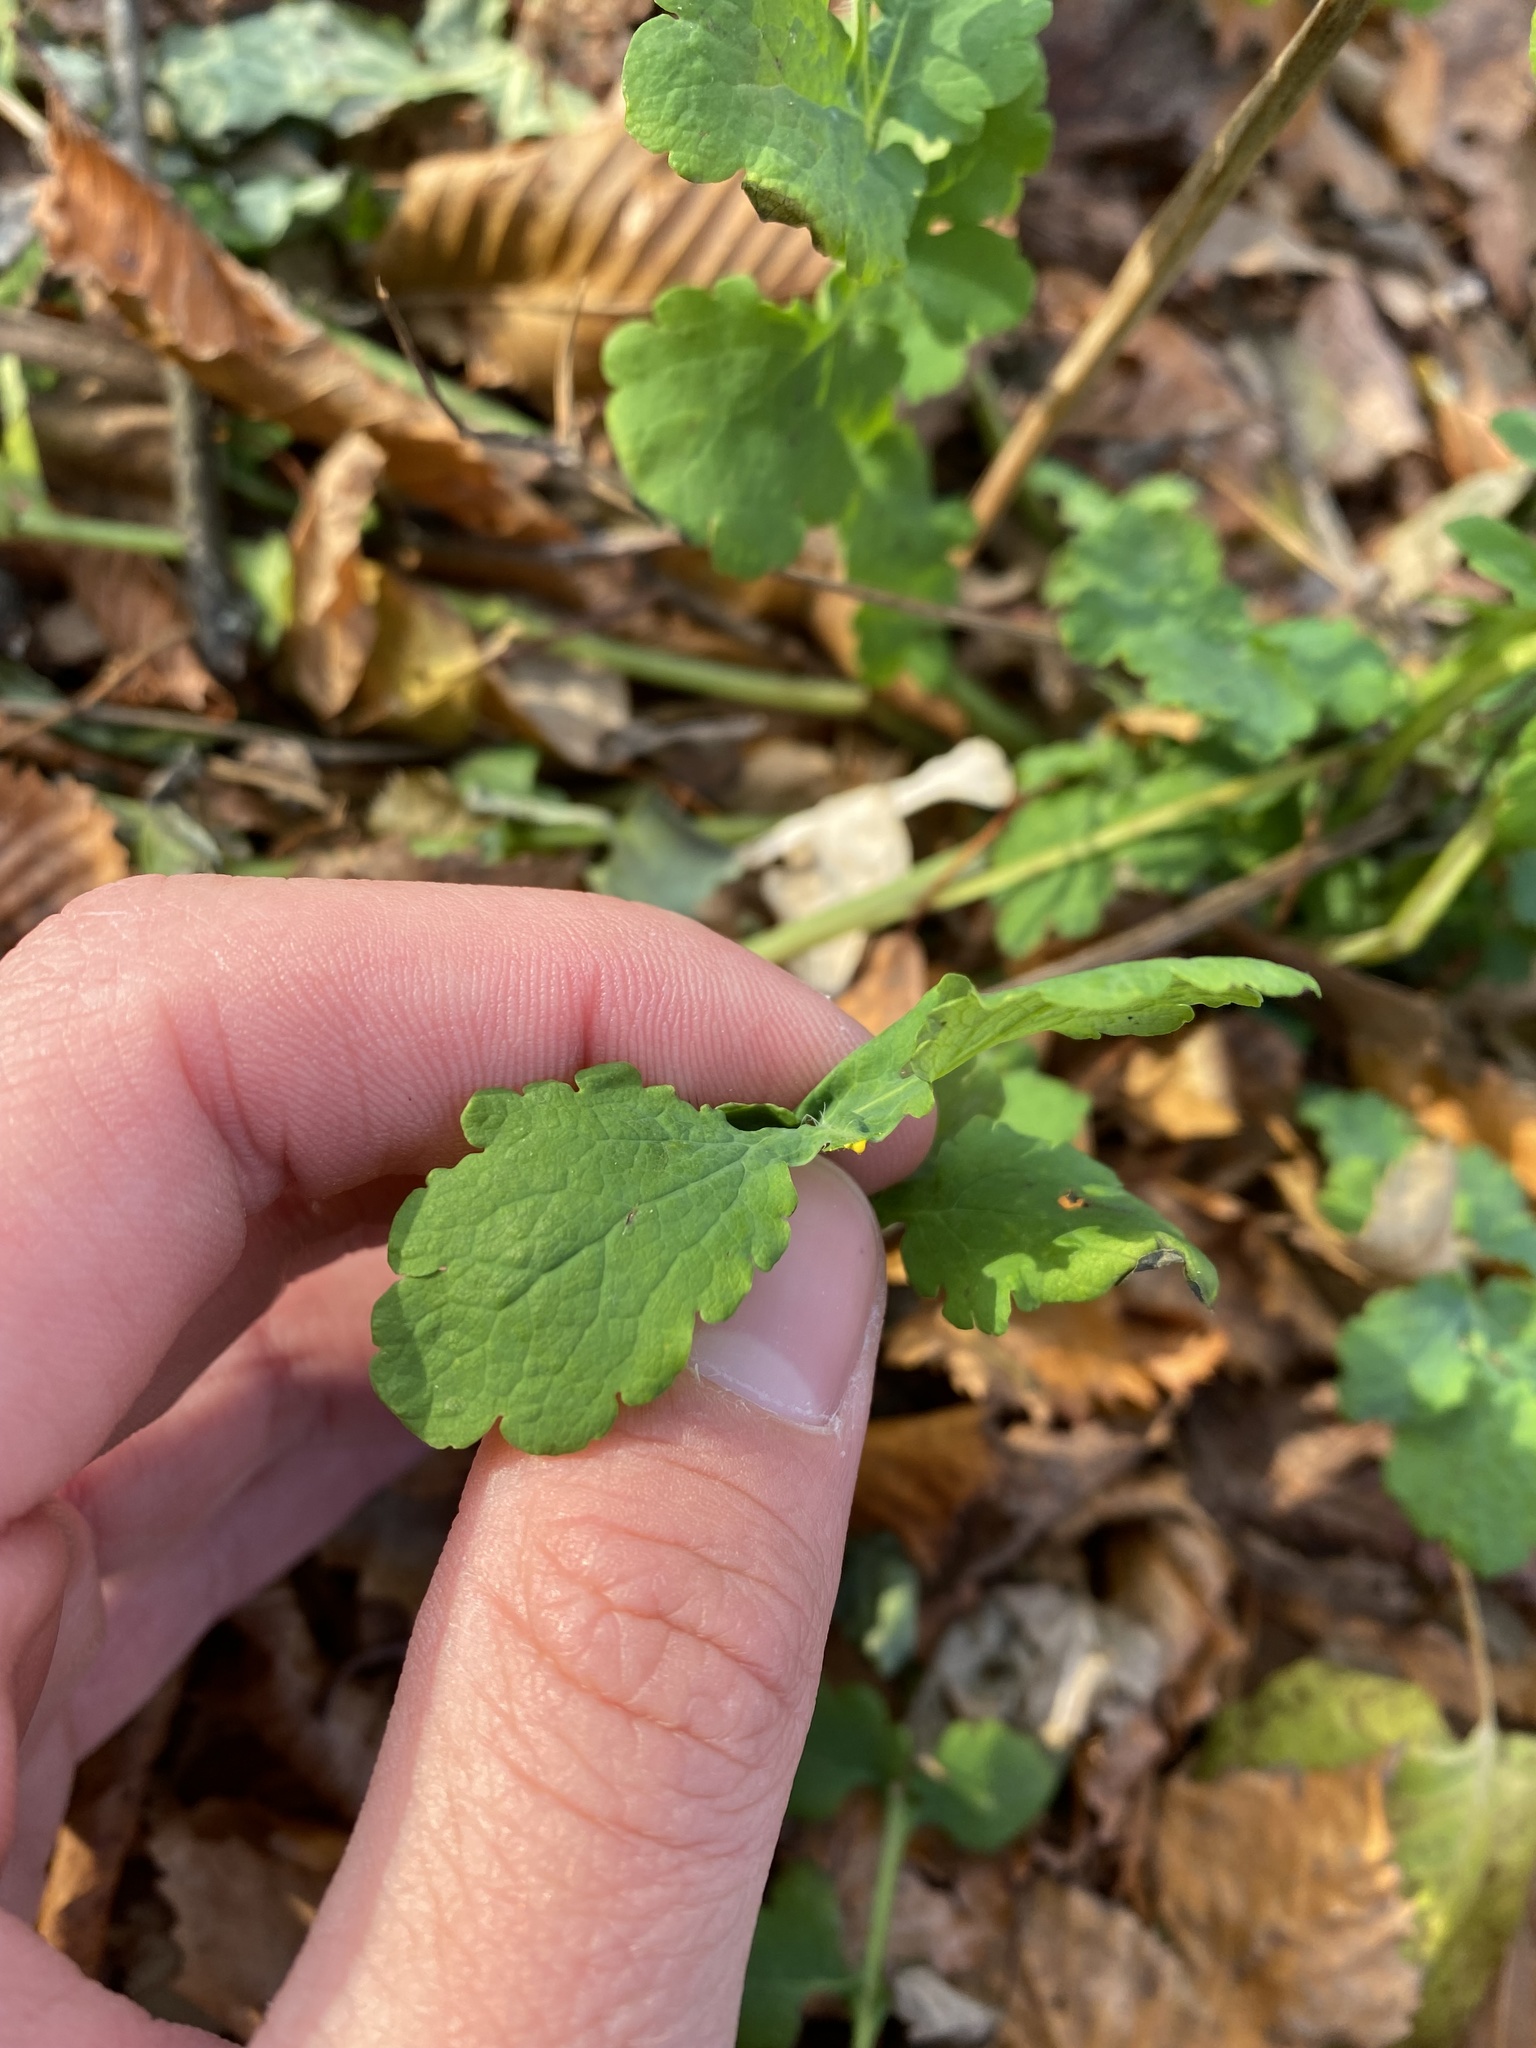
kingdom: Plantae
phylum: Tracheophyta
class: Magnoliopsida
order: Ranunculales
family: Papaveraceae
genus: Chelidonium
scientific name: Chelidonium majus
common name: Greater celandine
